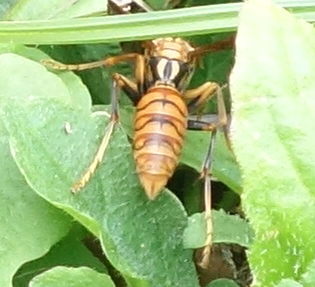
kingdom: Animalia
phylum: Arthropoda
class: Insecta
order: Hymenoptera
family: Eumenidae
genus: Polistes
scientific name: Polistes jokahamae
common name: Paper wasp
